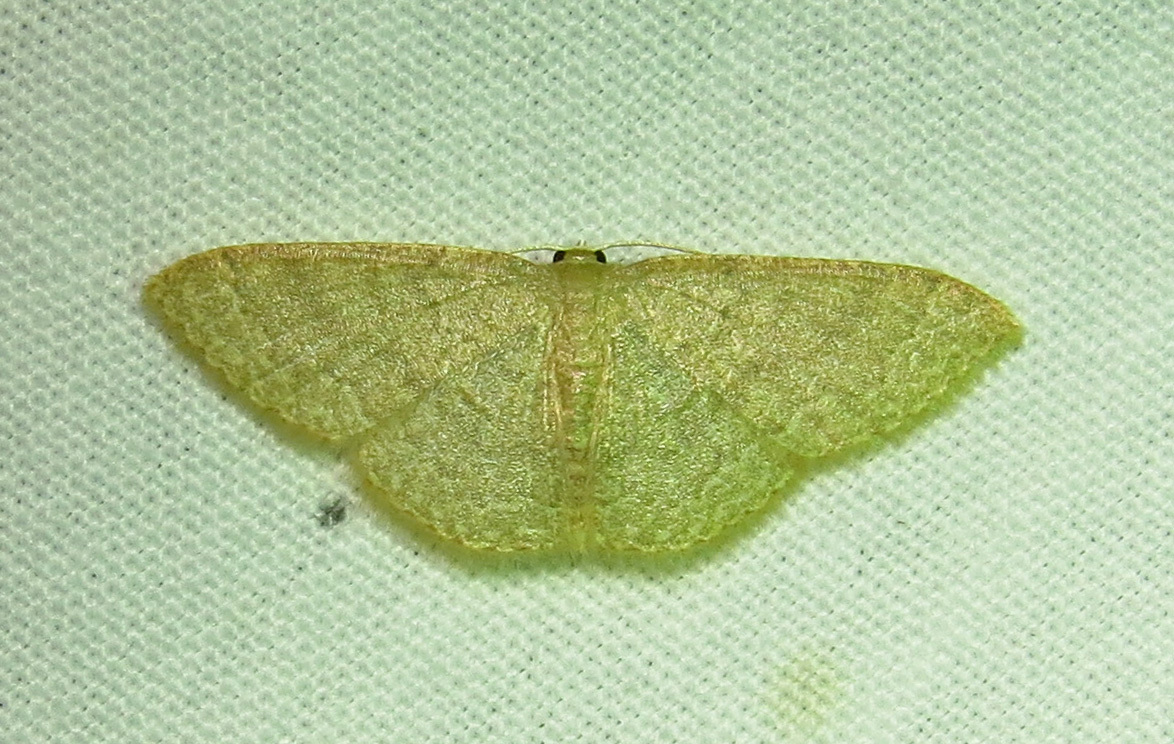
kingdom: Animalia
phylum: Arthropoda
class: Insecta
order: Lepidoptera
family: Geometridae
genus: Pleuroprucha
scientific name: Pleuroprucha insulsaria
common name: Common tan wave
